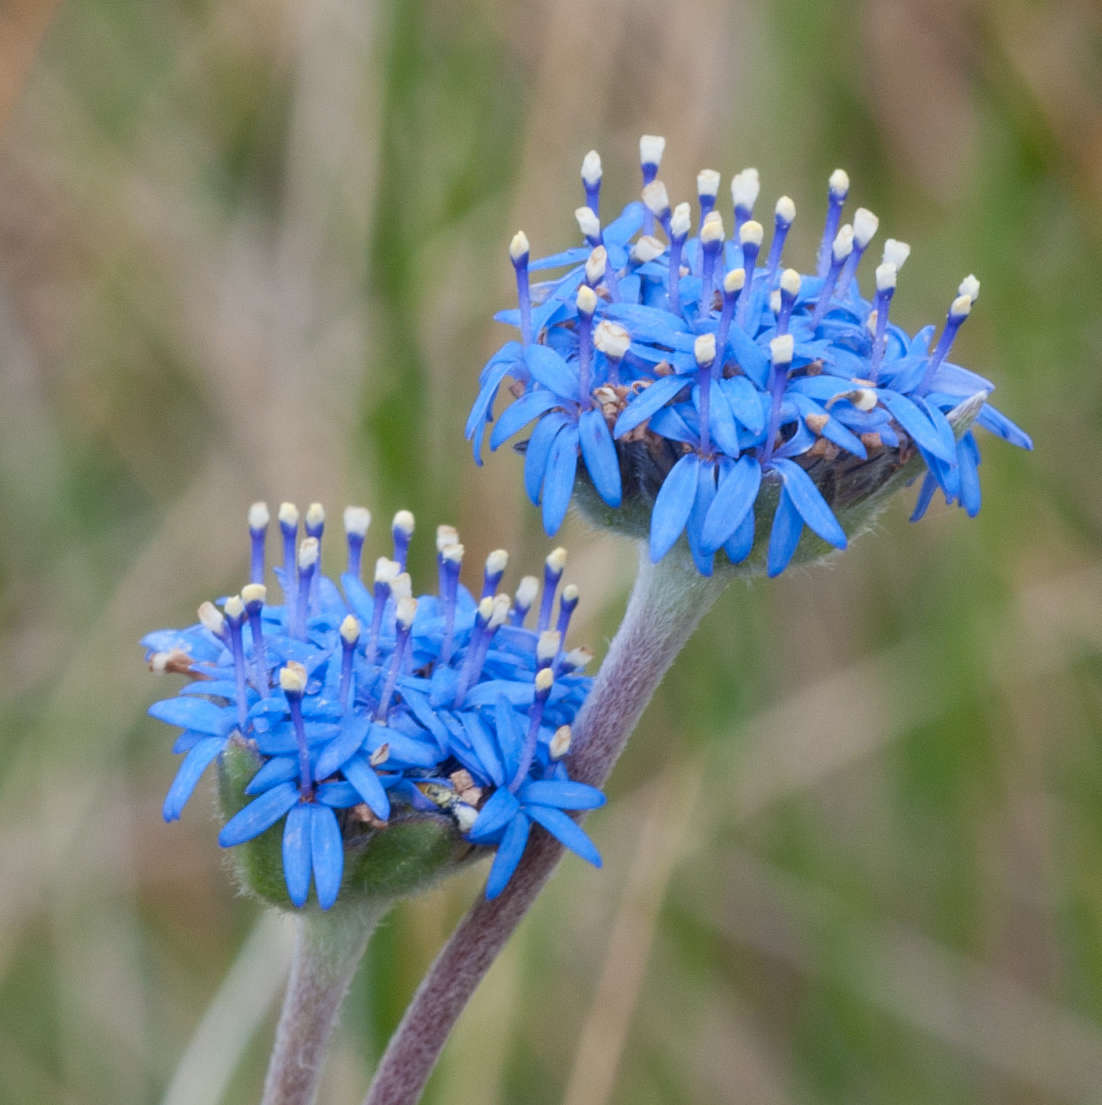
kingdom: Plantae
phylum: Tracheophyta
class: Magnoliopsida
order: Asterales
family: Goodeniaceae
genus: Brunonia
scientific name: Brunonia australis
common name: Blue pincushion
